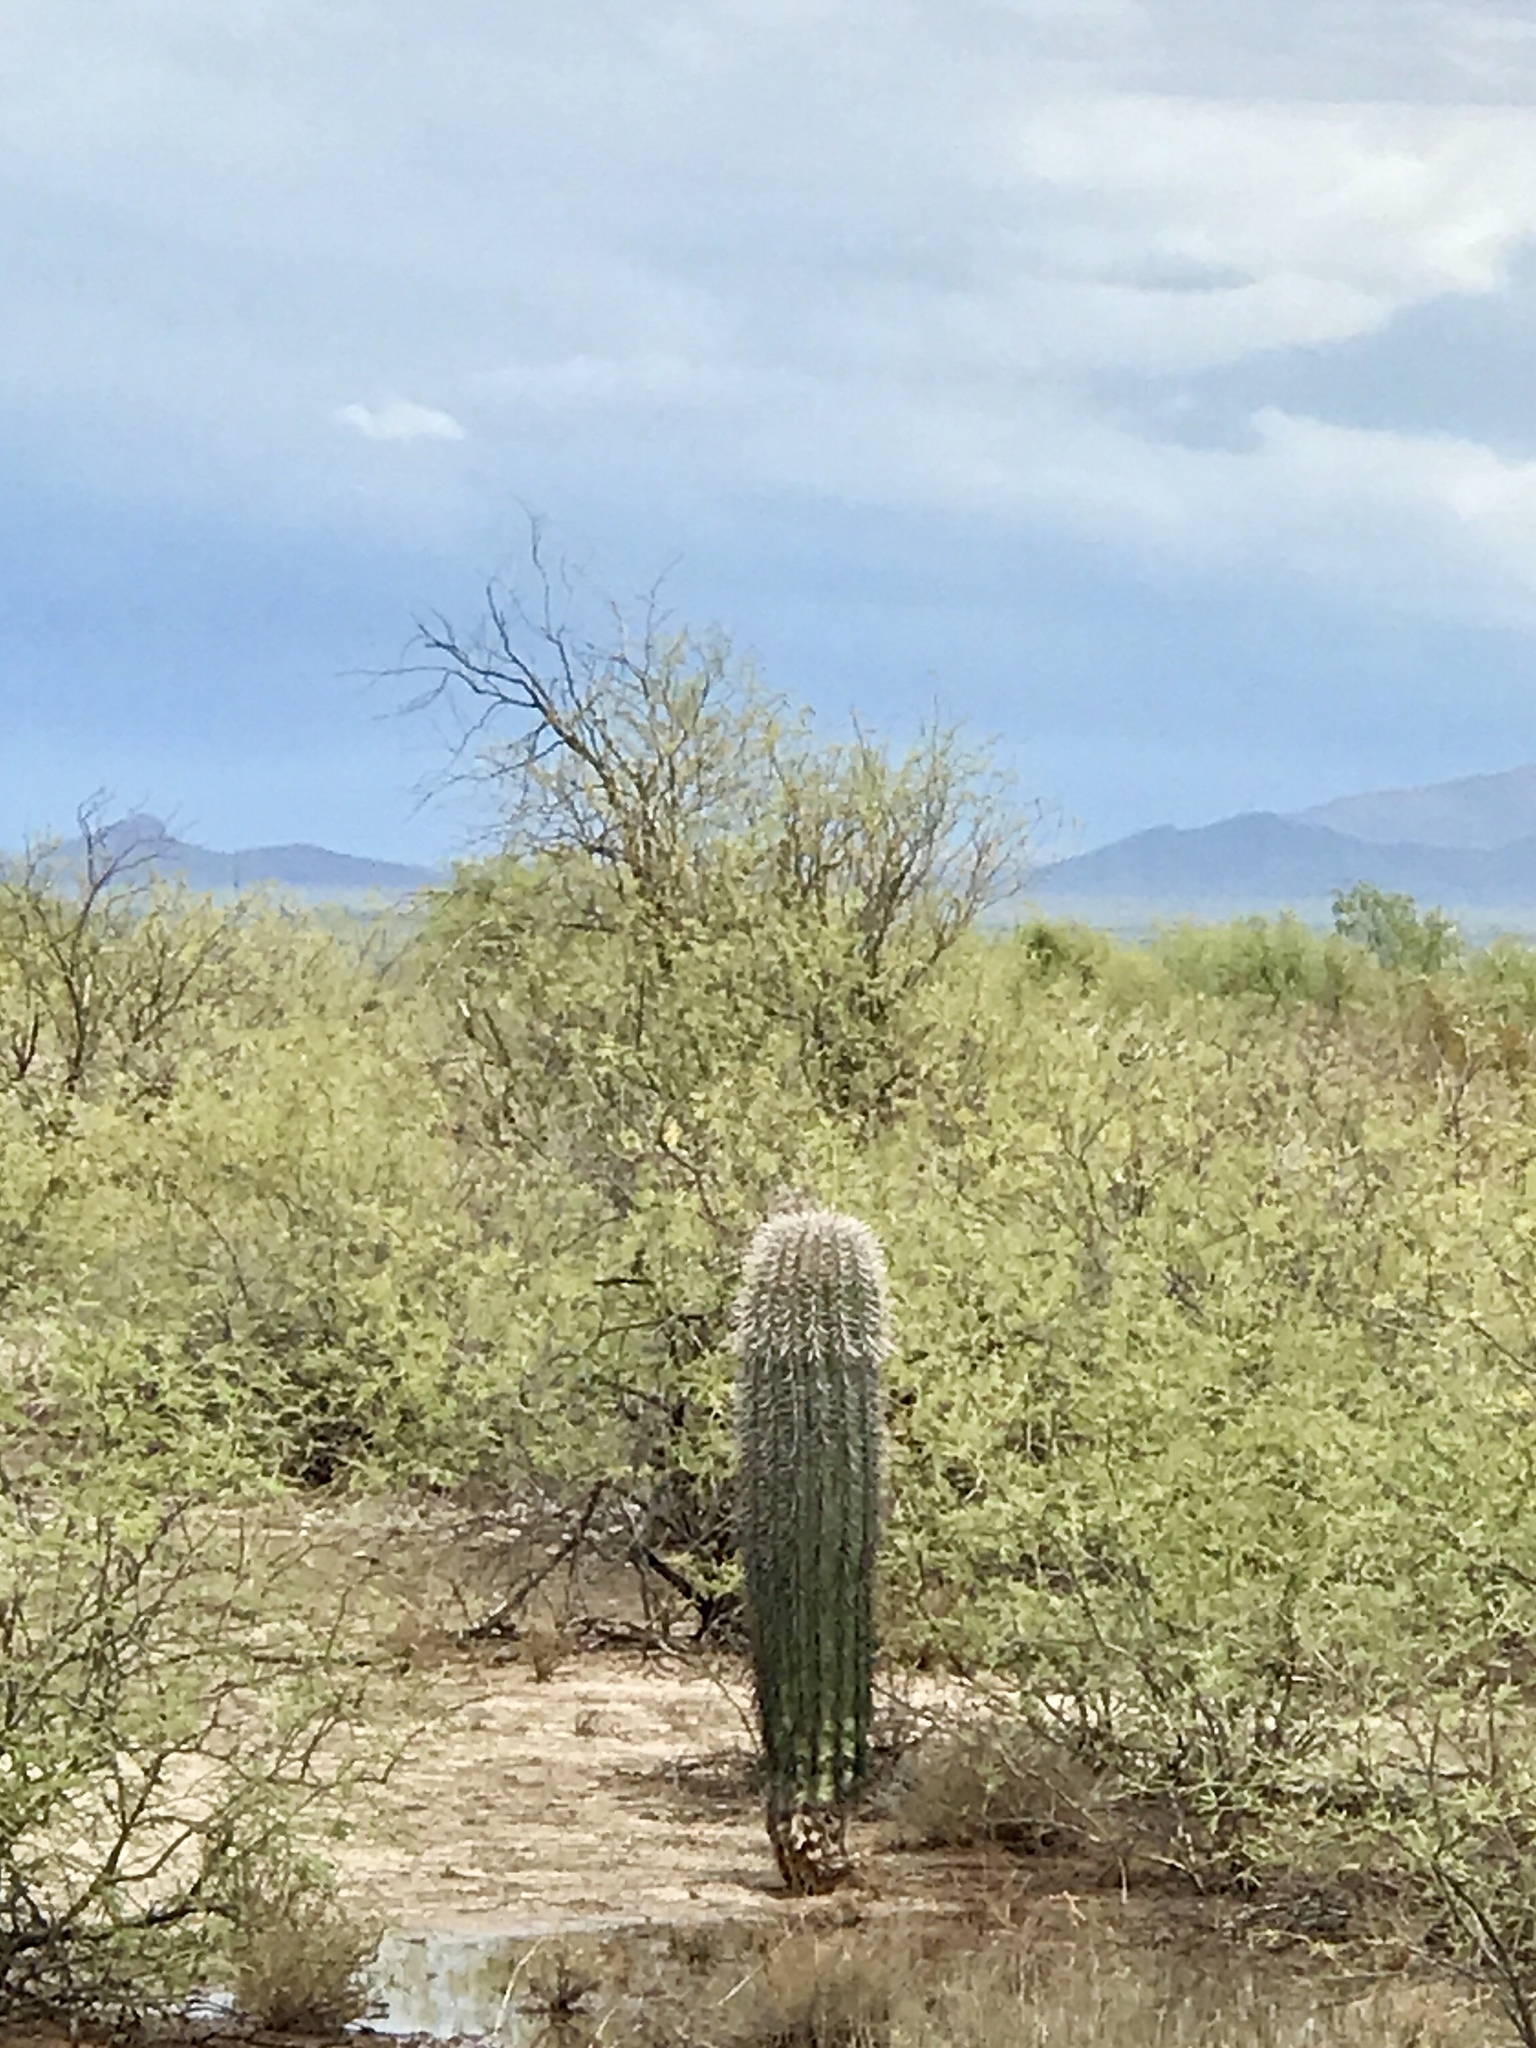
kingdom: Plantae
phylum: Tracheophyta
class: Magnoliopsida
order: Caryophyllales
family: Cactaceae
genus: Carnegiea
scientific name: Carnegiea gigantea
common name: Saguaro
